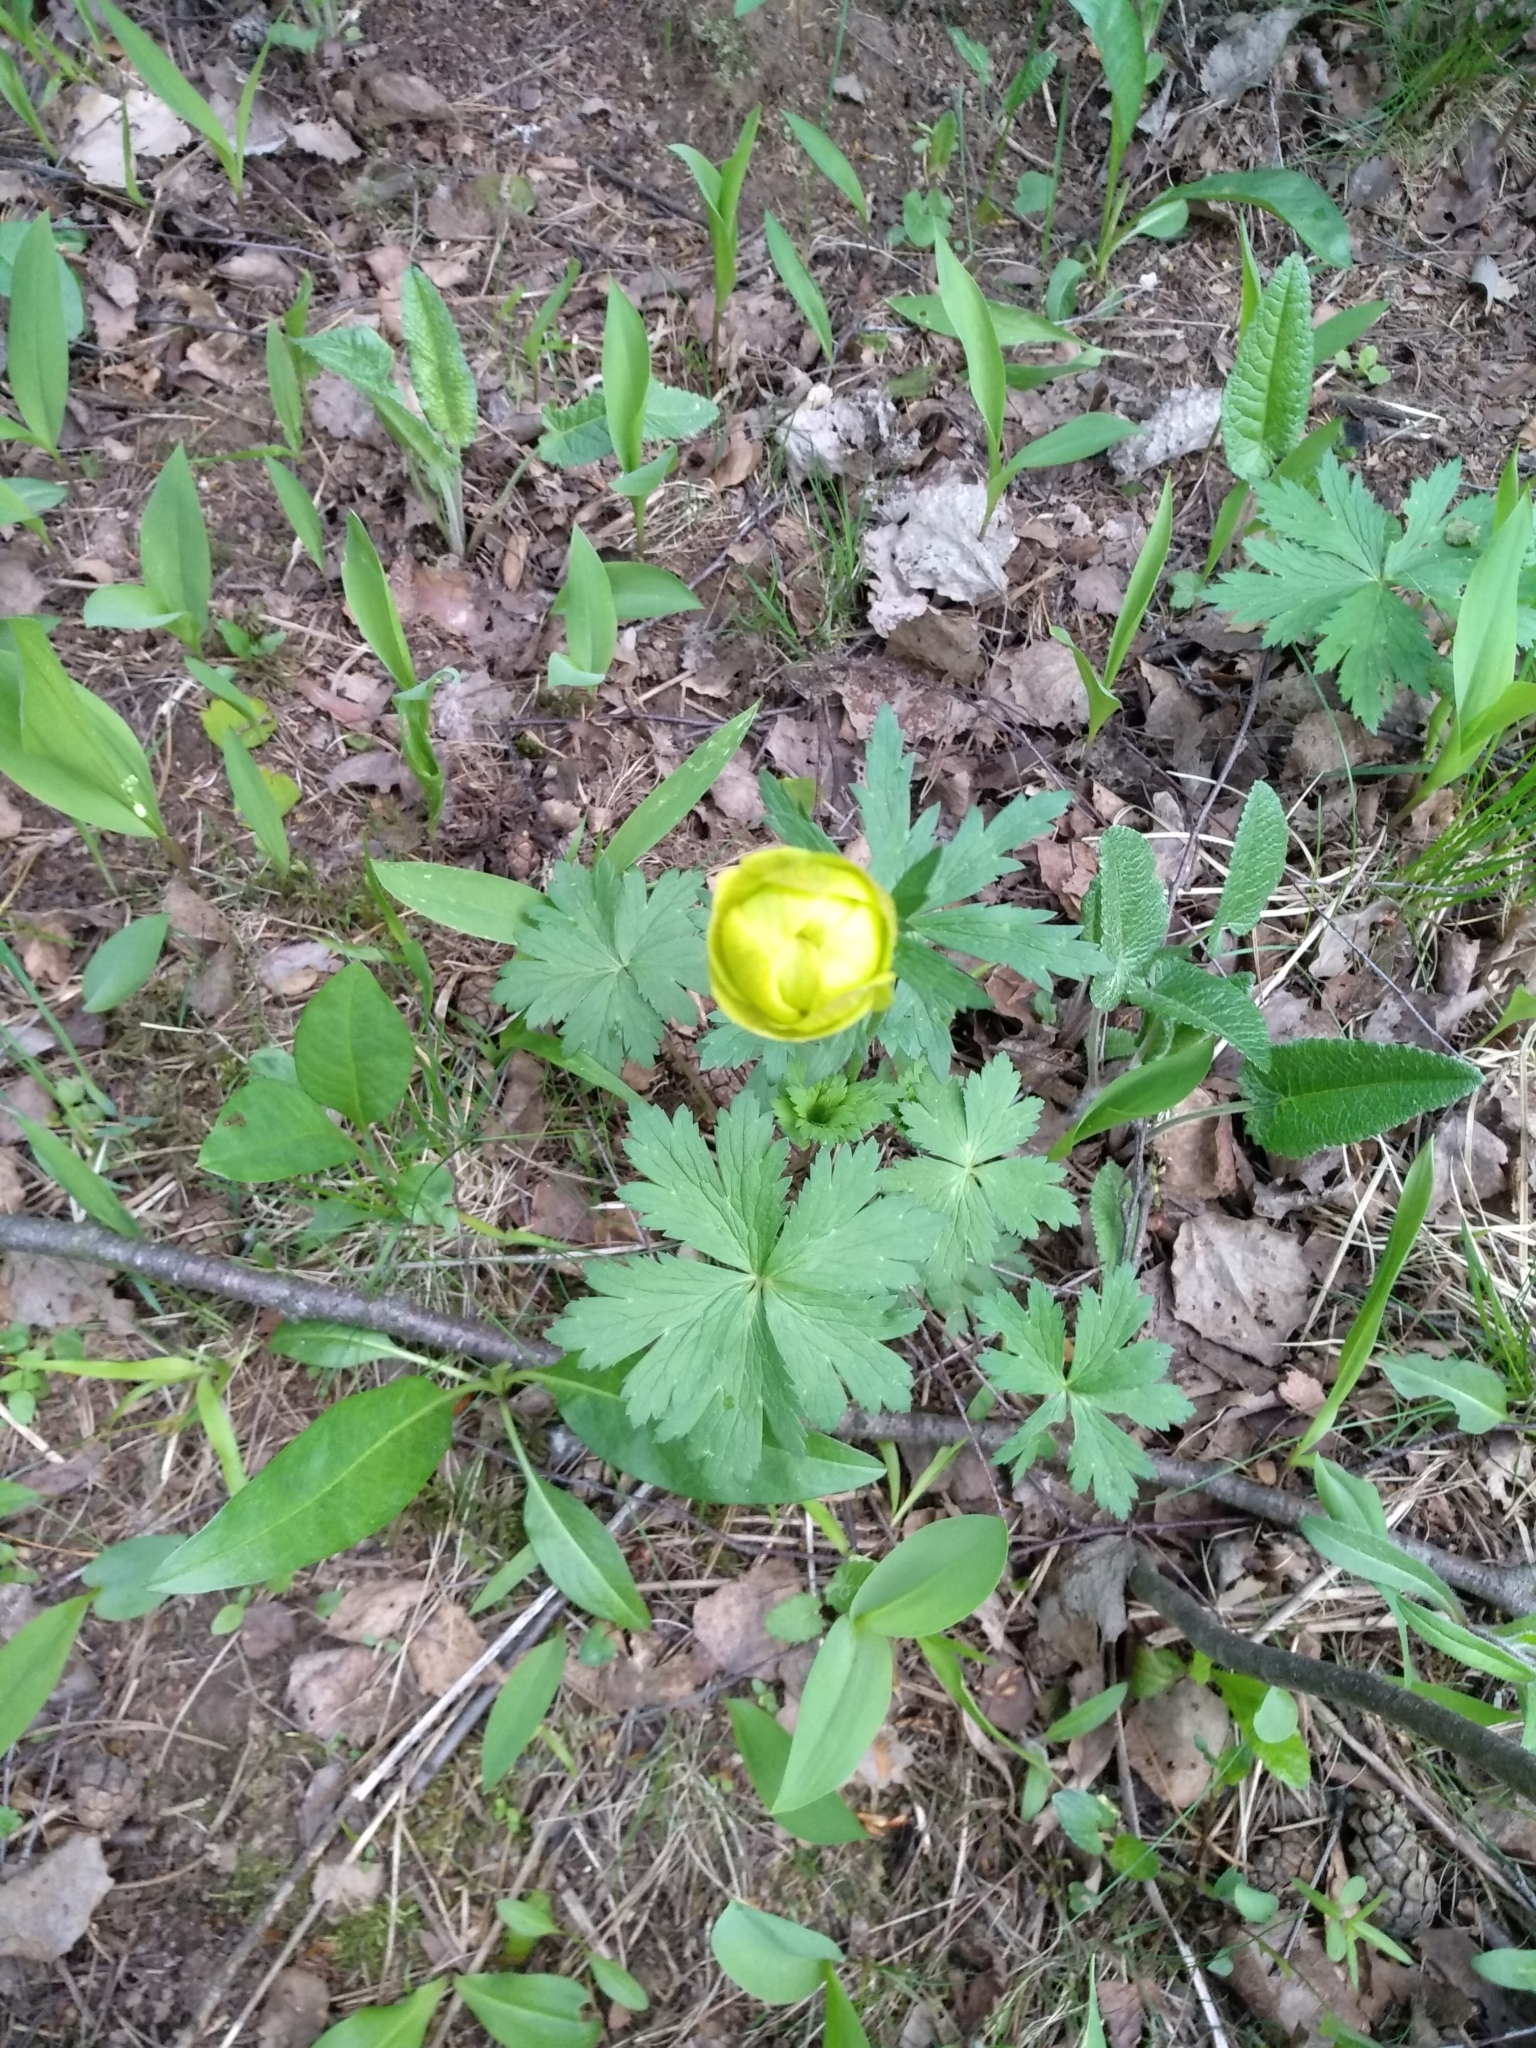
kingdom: Plantae
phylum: Tracheophyta
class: Magnoliopsida
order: Ranunculales
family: Ranunculaceae
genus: Trollius
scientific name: Trollius europaeus
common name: European globeflower
